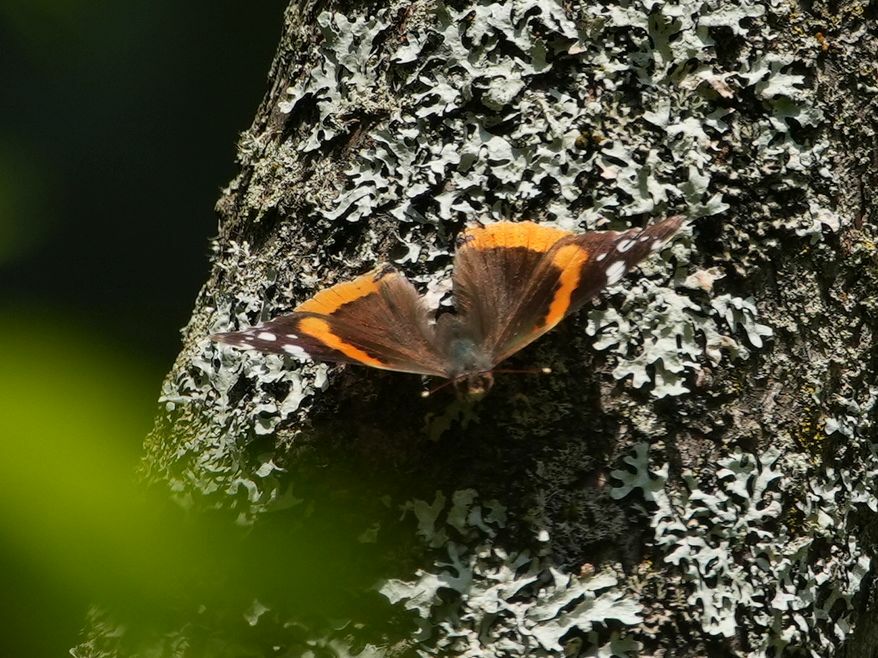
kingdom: Animalia
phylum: Arthropoda
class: Insecta
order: Lepidoptera
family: Nymphalidae
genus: Vanessa
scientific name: Vanessa atalanta
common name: Red admiral
